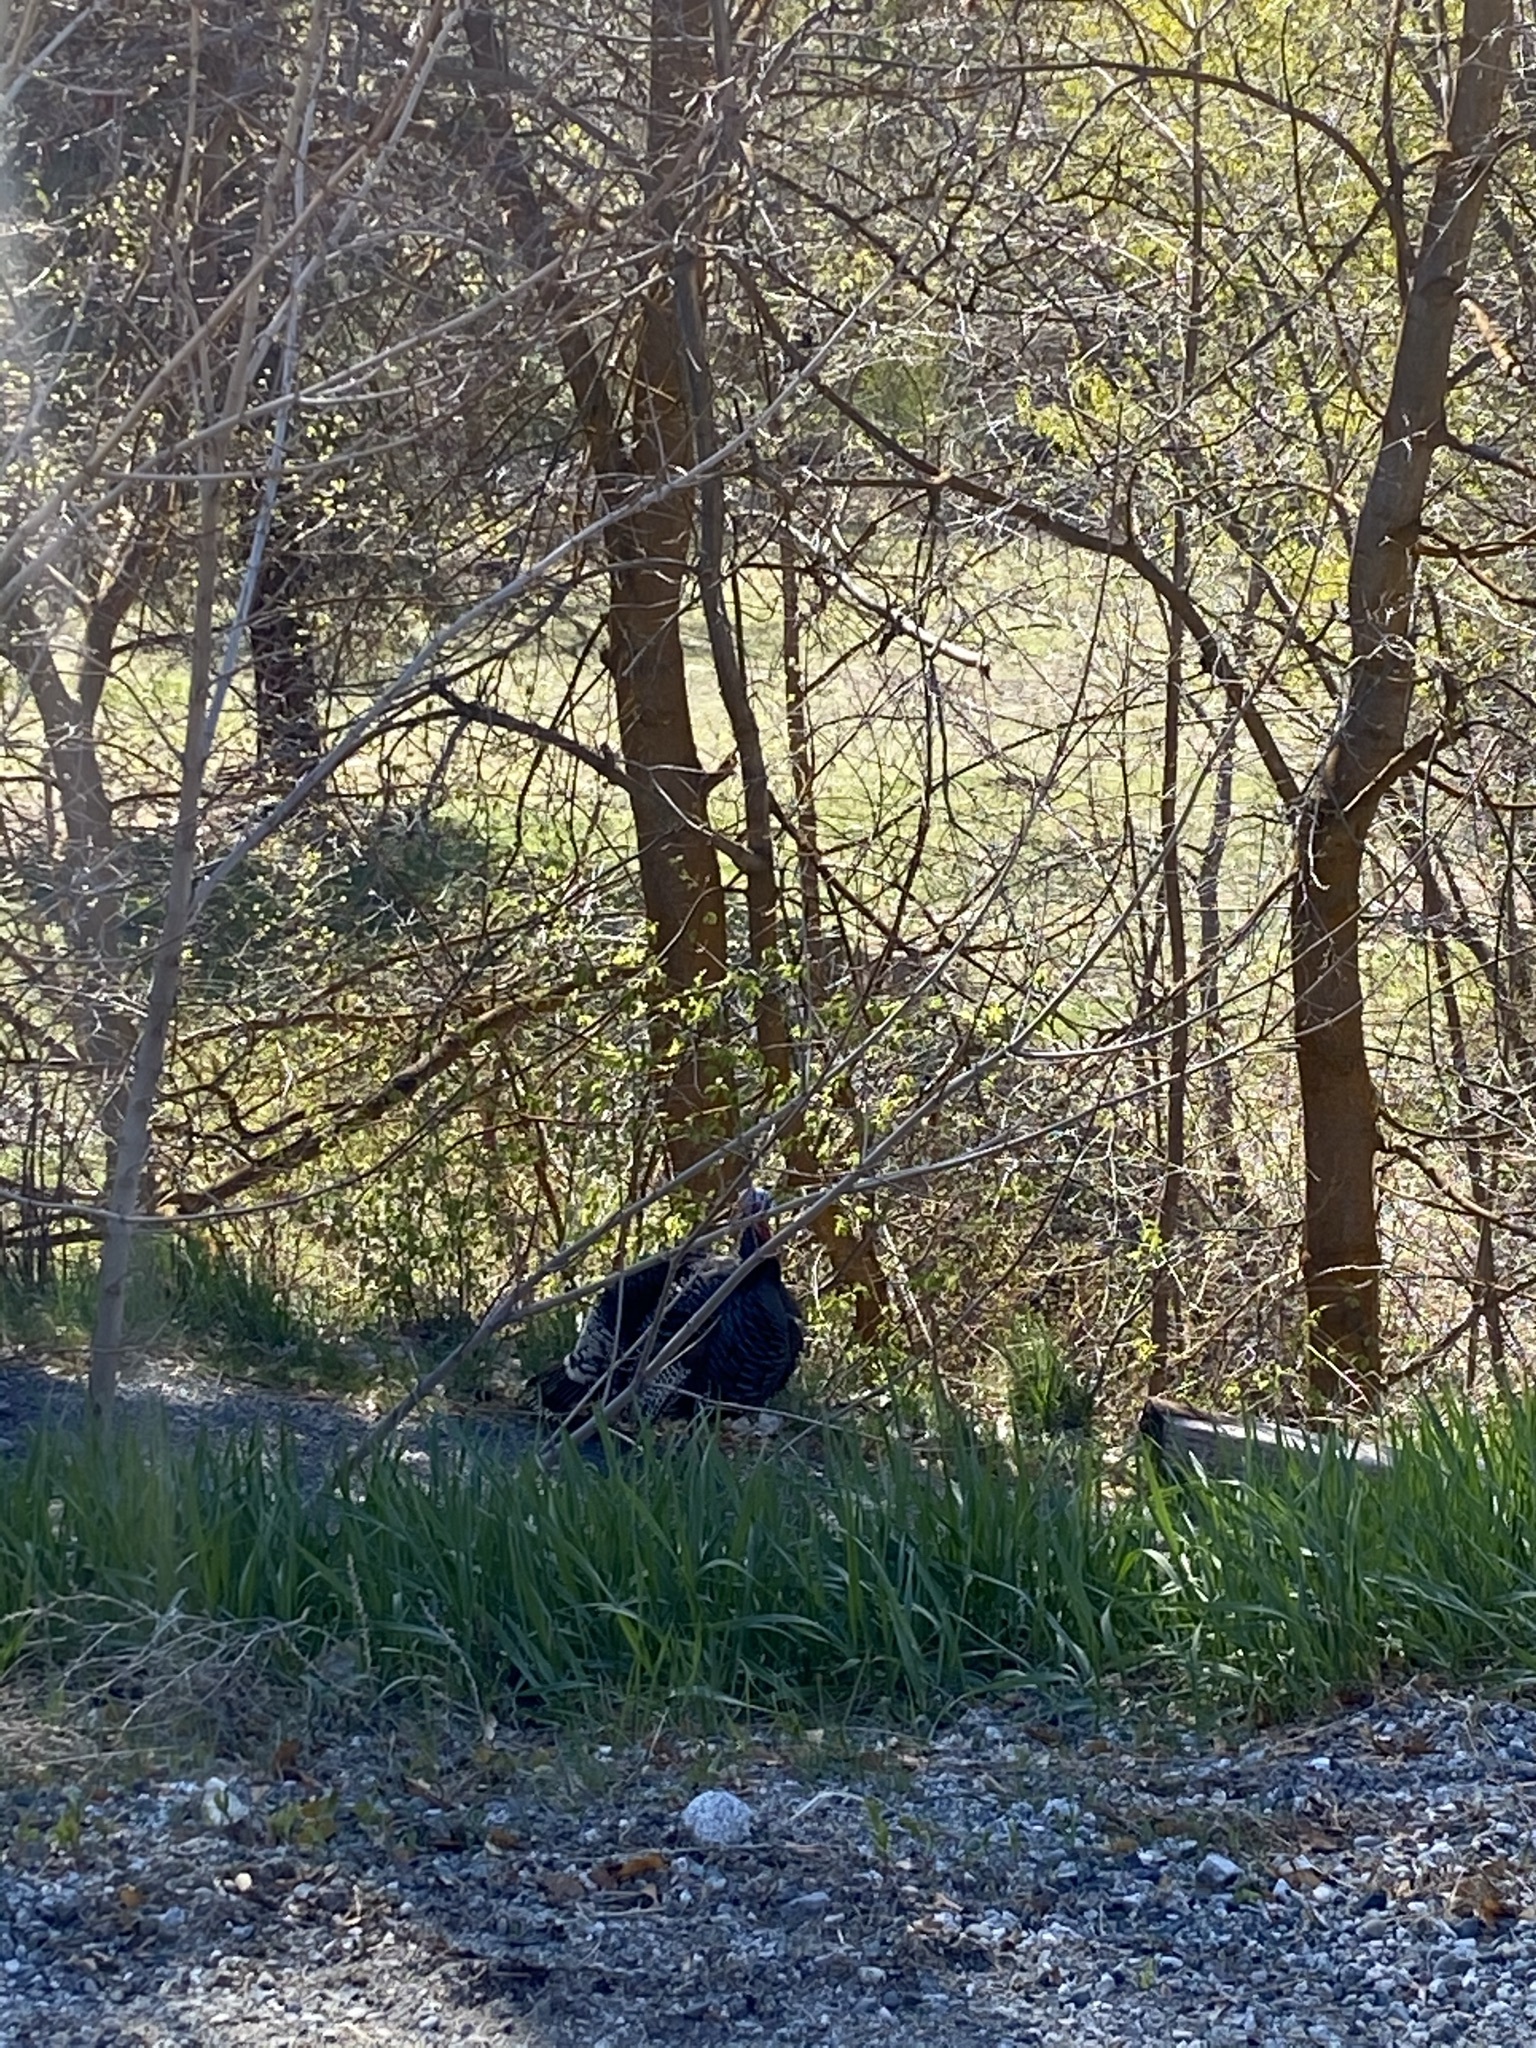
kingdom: Animalia
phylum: Chordata
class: Aves
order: Galliformes
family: Phasianidae
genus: Meleagris
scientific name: Meleagris gallopavo
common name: Wild turkey
